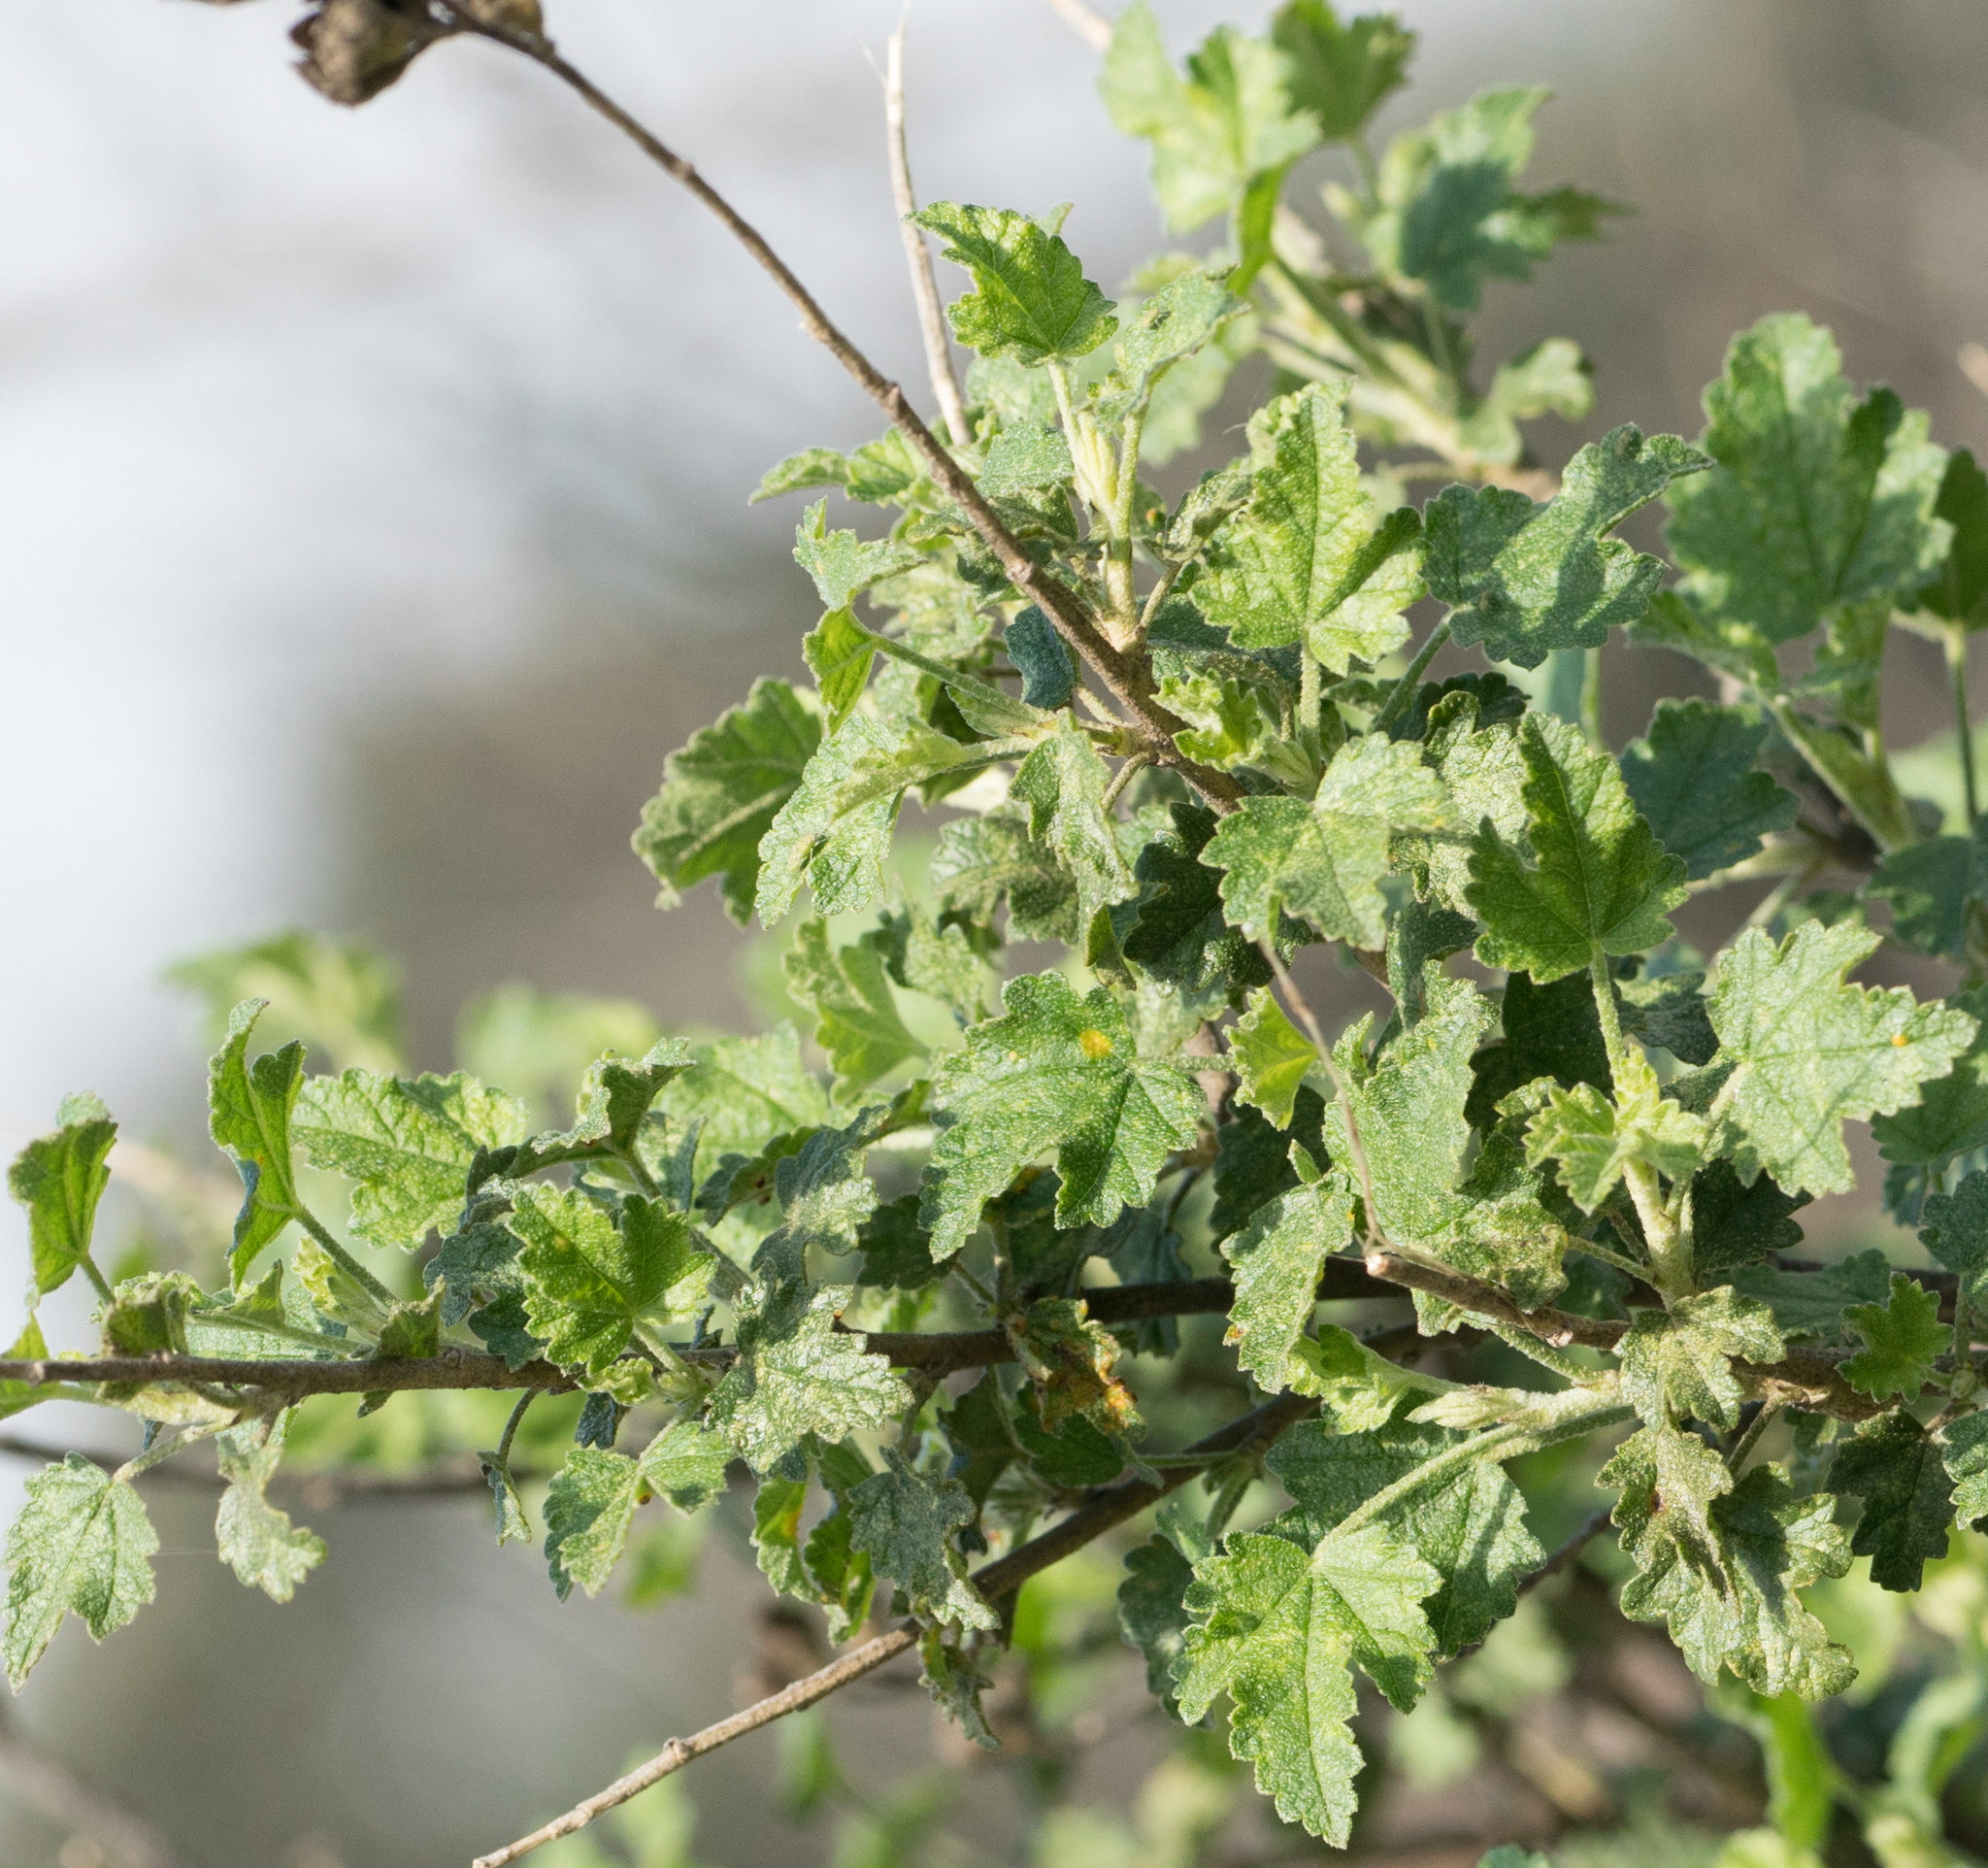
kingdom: Plantae
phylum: Tracheophyta
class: Magnoliopsida
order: Malvales
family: Malvaceae
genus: Malacothamnus
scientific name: Malacothamnus fasciculatus
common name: Sant cruz island bush-mallow
